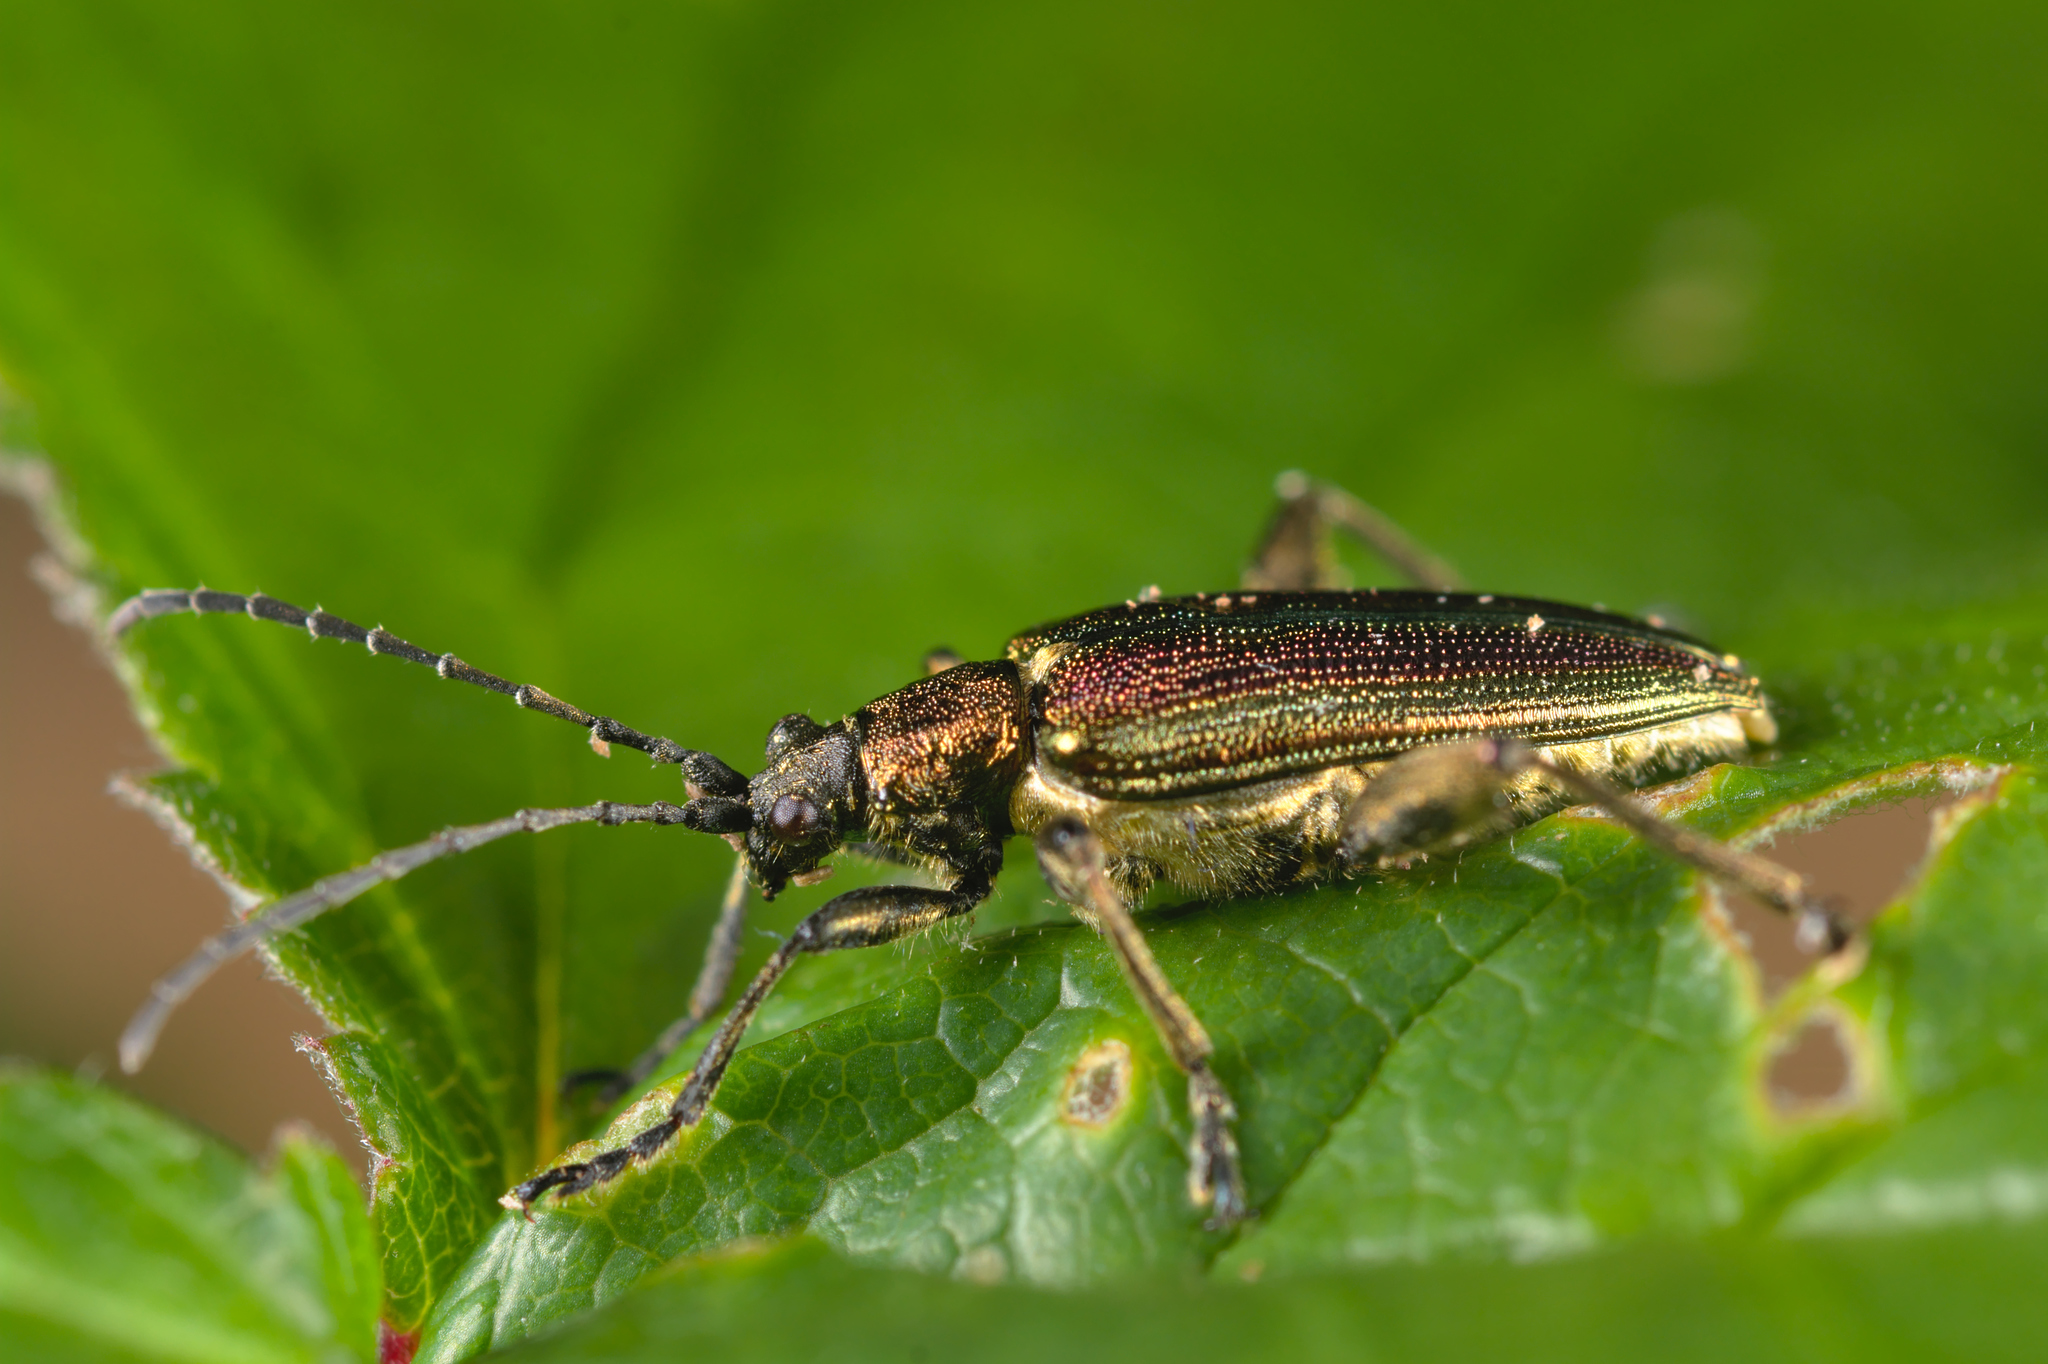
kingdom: Animalia
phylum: Arthropoda
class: Insecta
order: Coleoptera
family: Chrysomelidae
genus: Donacia
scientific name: Donacia aquatica
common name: Zircon reed beetle
